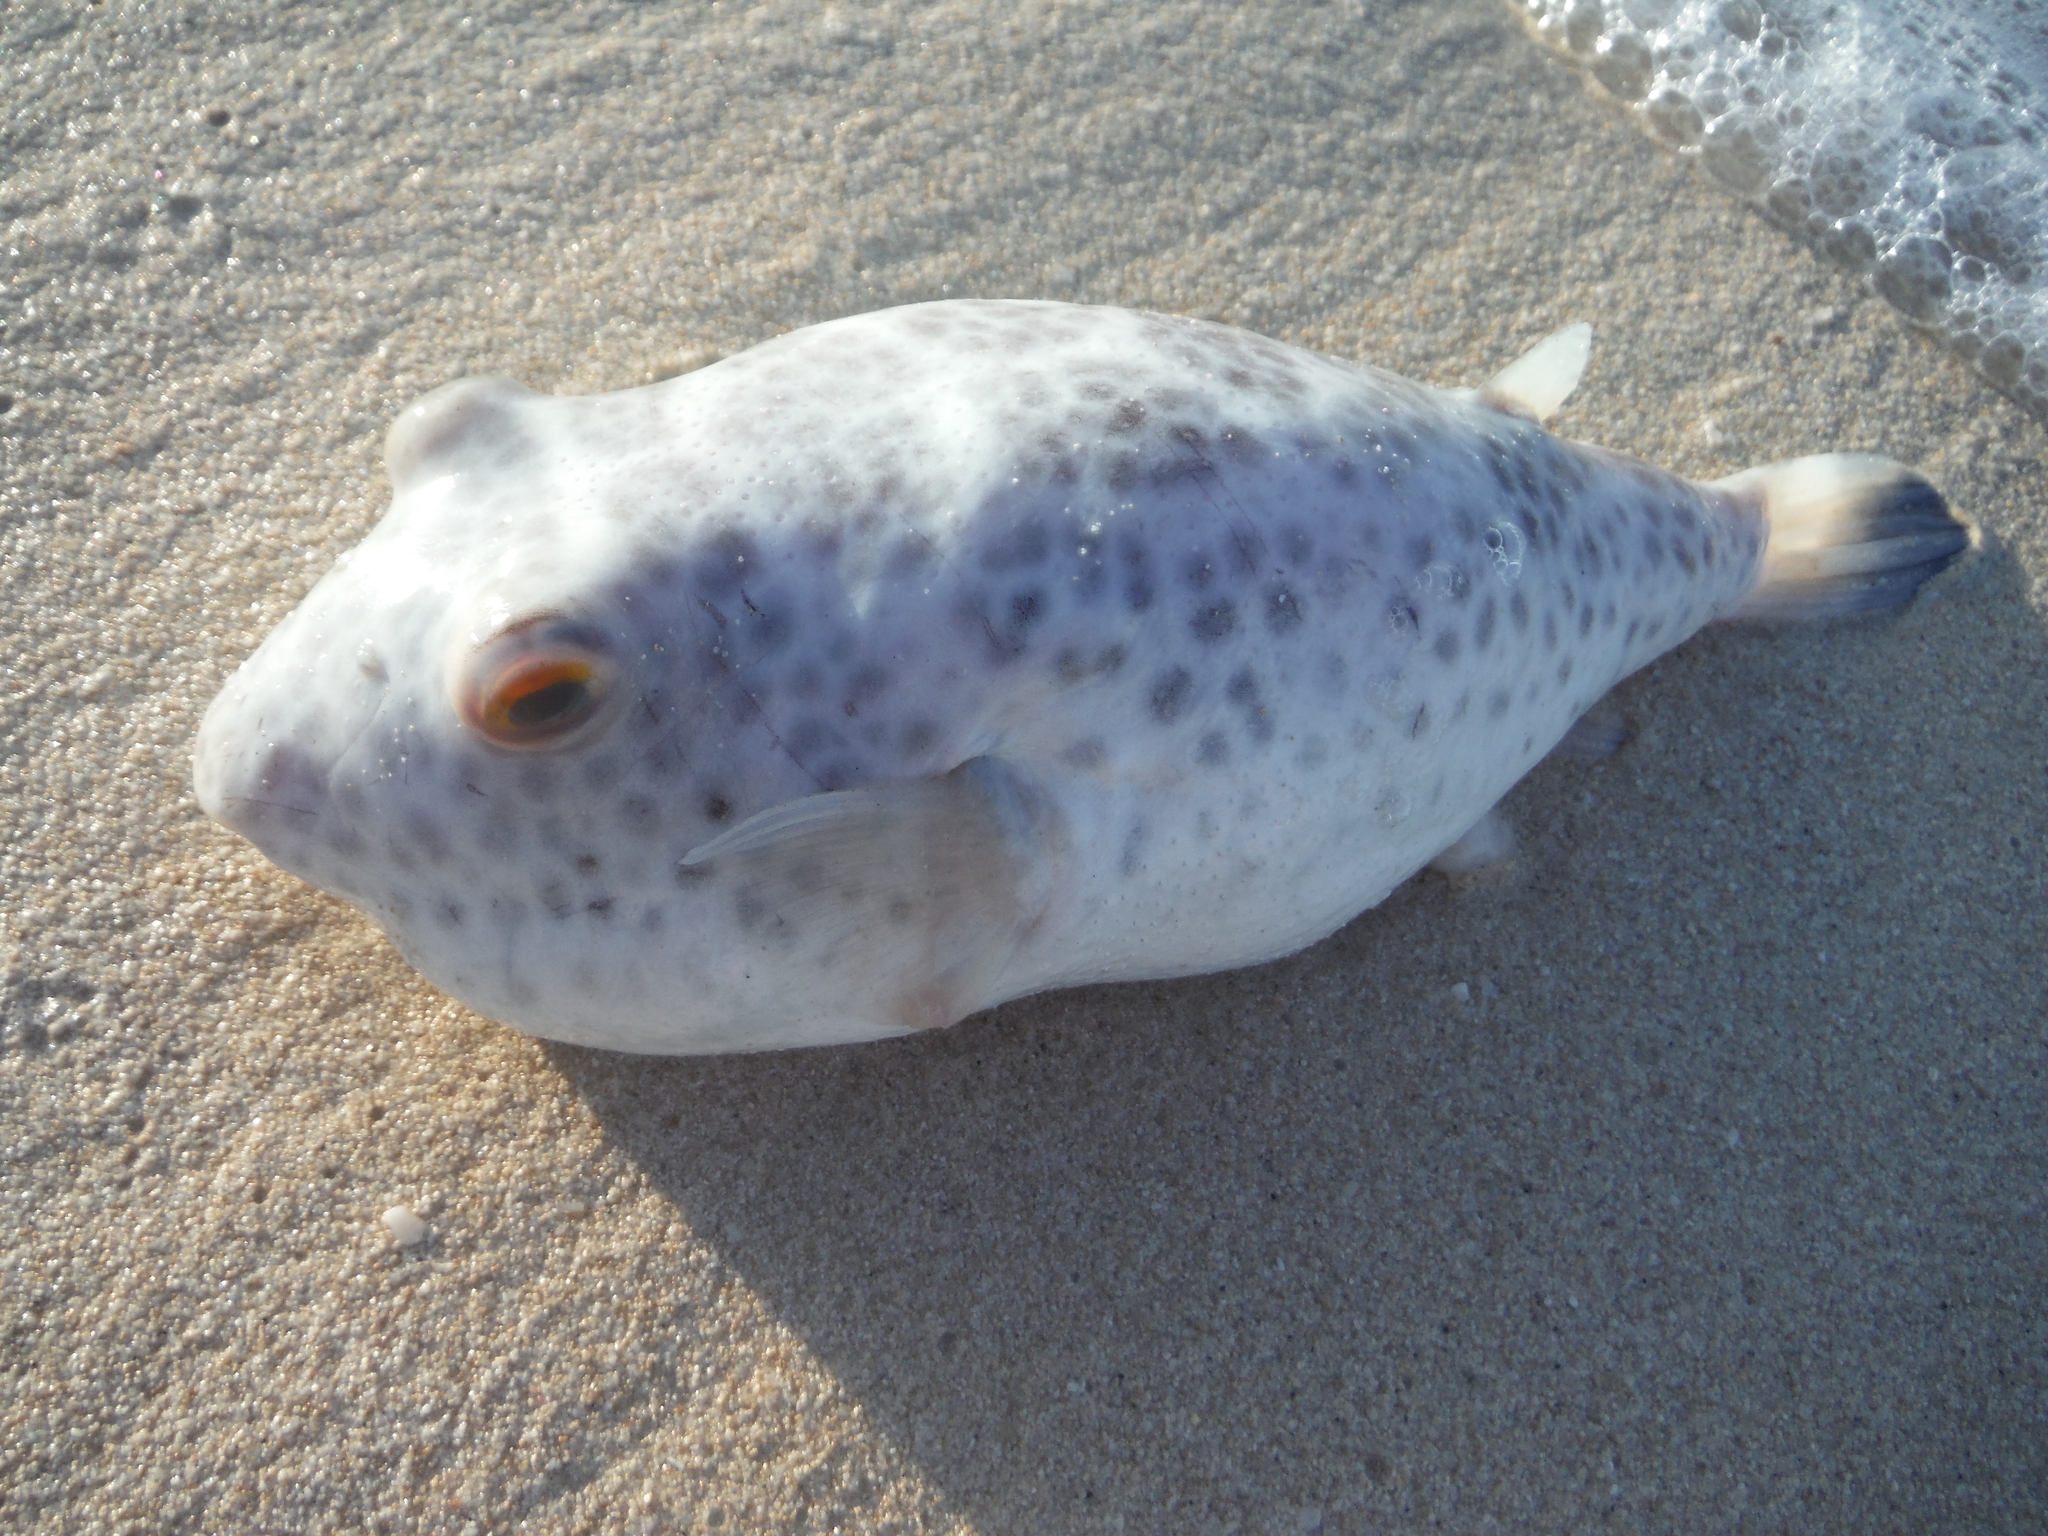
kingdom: Animalia
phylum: Chordata
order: Tetraodontiformes
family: Tetraodontidae
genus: Sphoeroides
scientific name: Sphoeroides testudineus
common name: Checkered puffer
